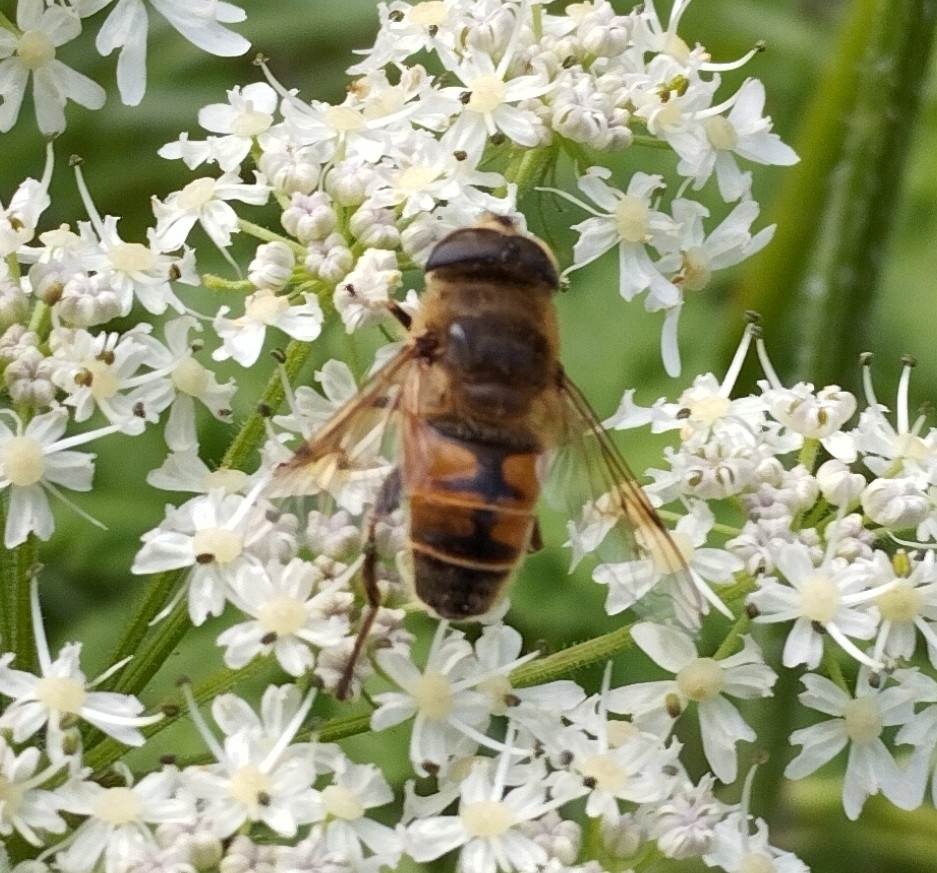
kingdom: Animalia
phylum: Arthropoda
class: Insecta
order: Diptera
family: Syrphidae
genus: Eristalis
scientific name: Eristalis tenax
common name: Drone fly
